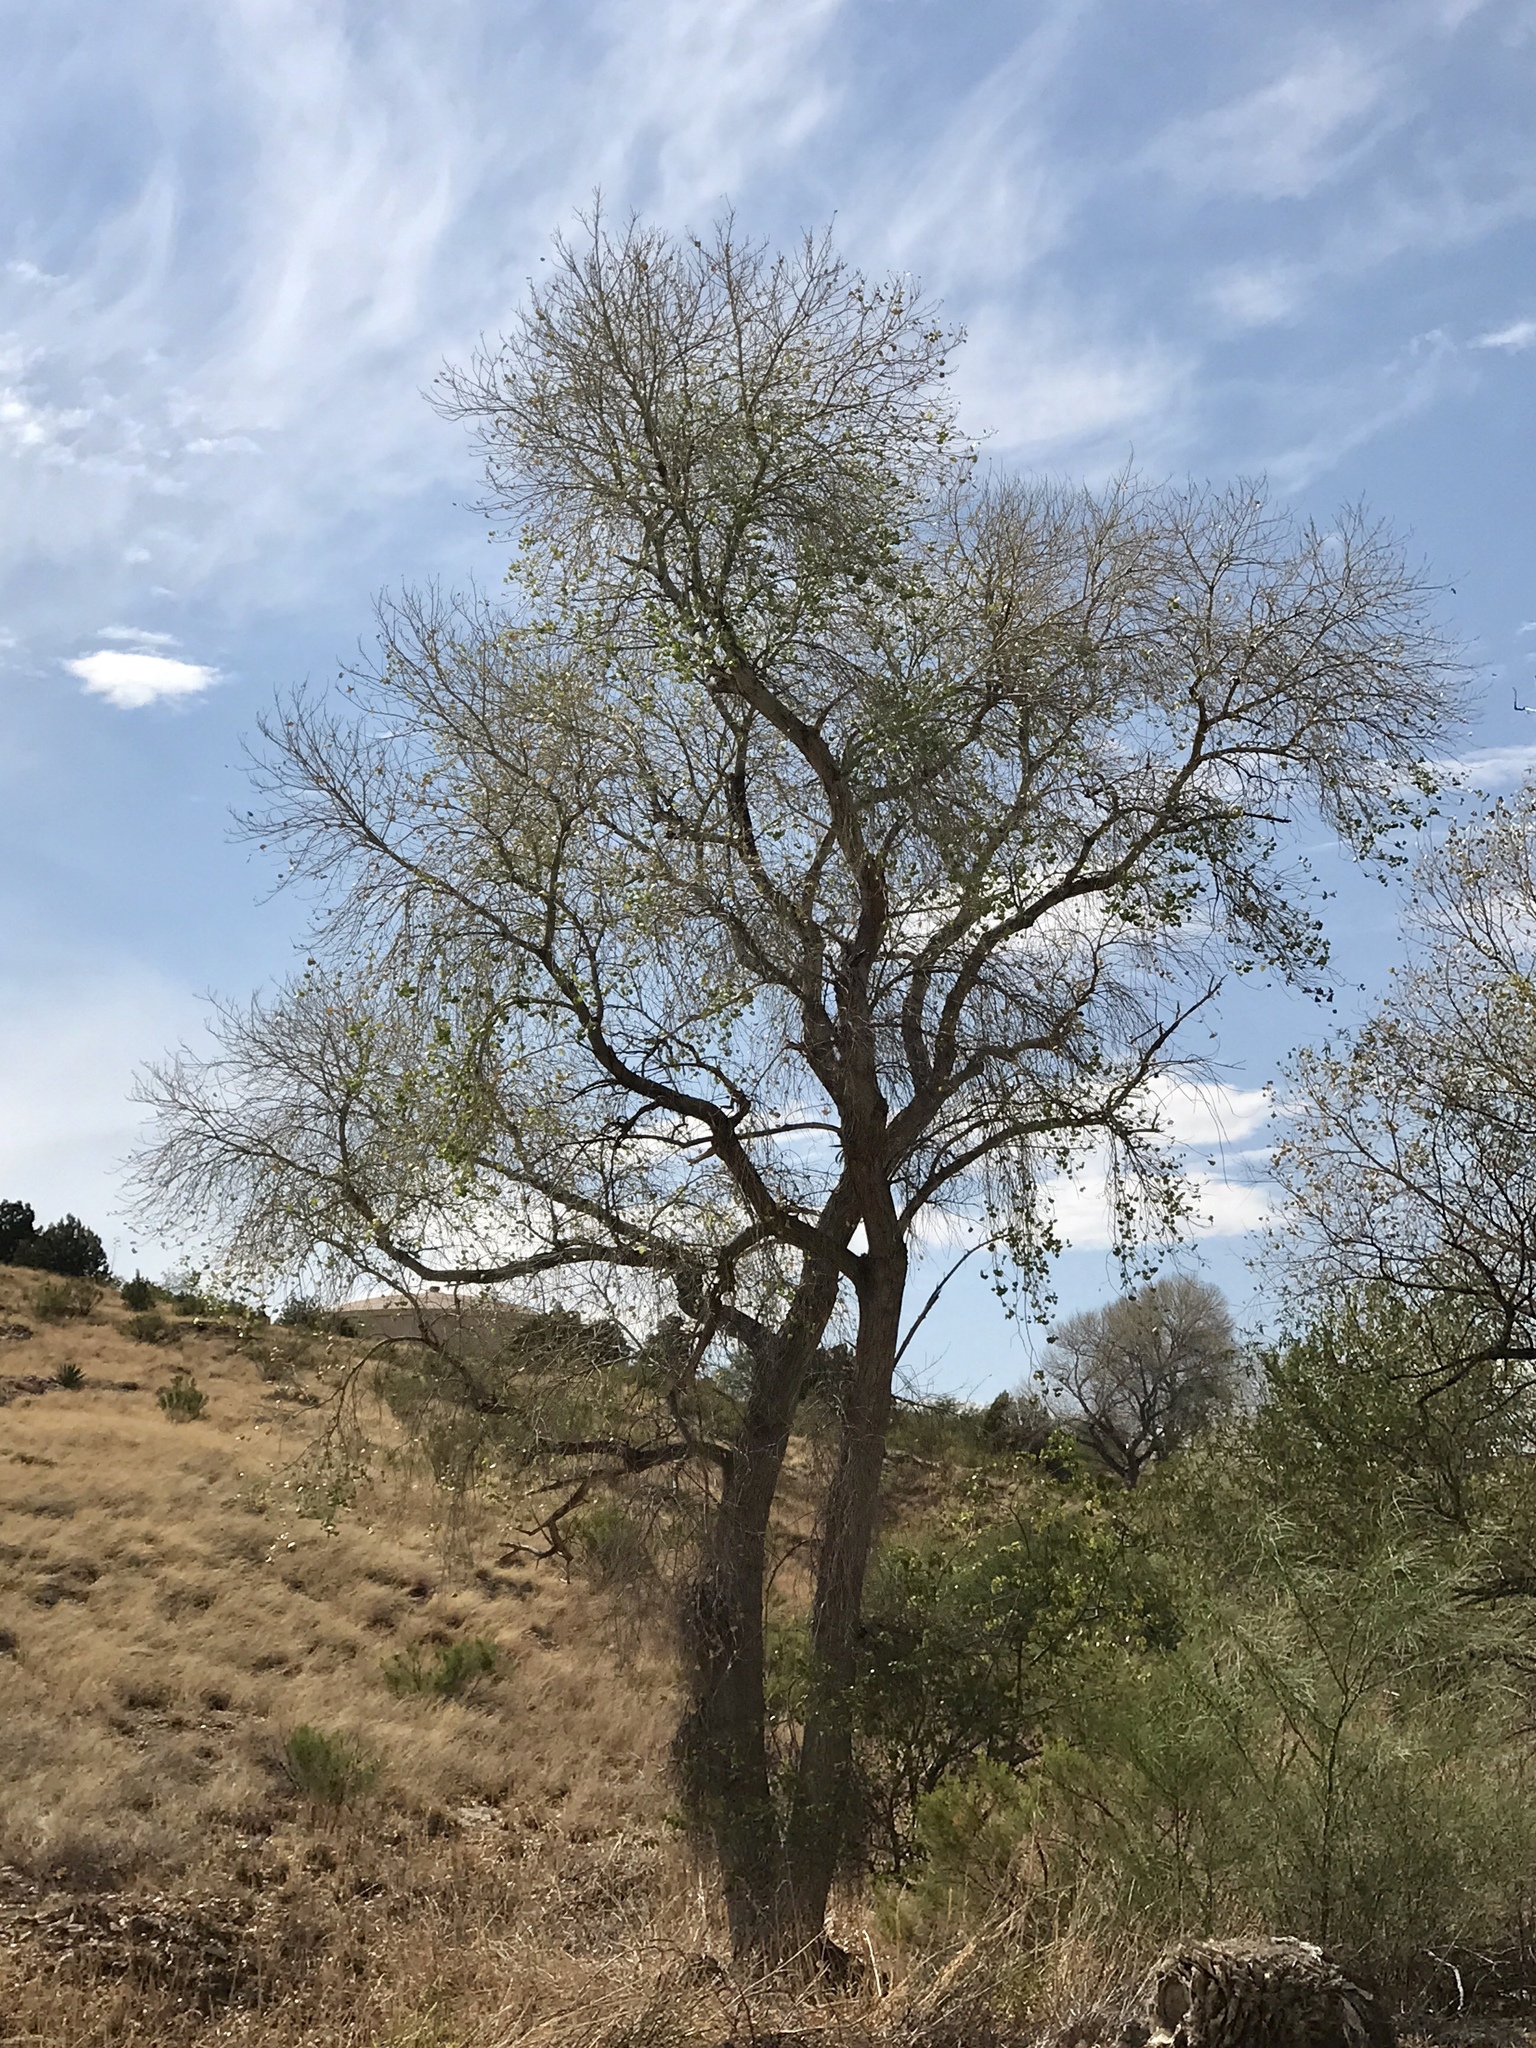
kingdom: Plantae
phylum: Tracheophyta
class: Magnoliopsida
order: Malpighiales
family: Salicaceae
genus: Populus
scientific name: Populus fremontii
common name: Fremont's cottonwood
